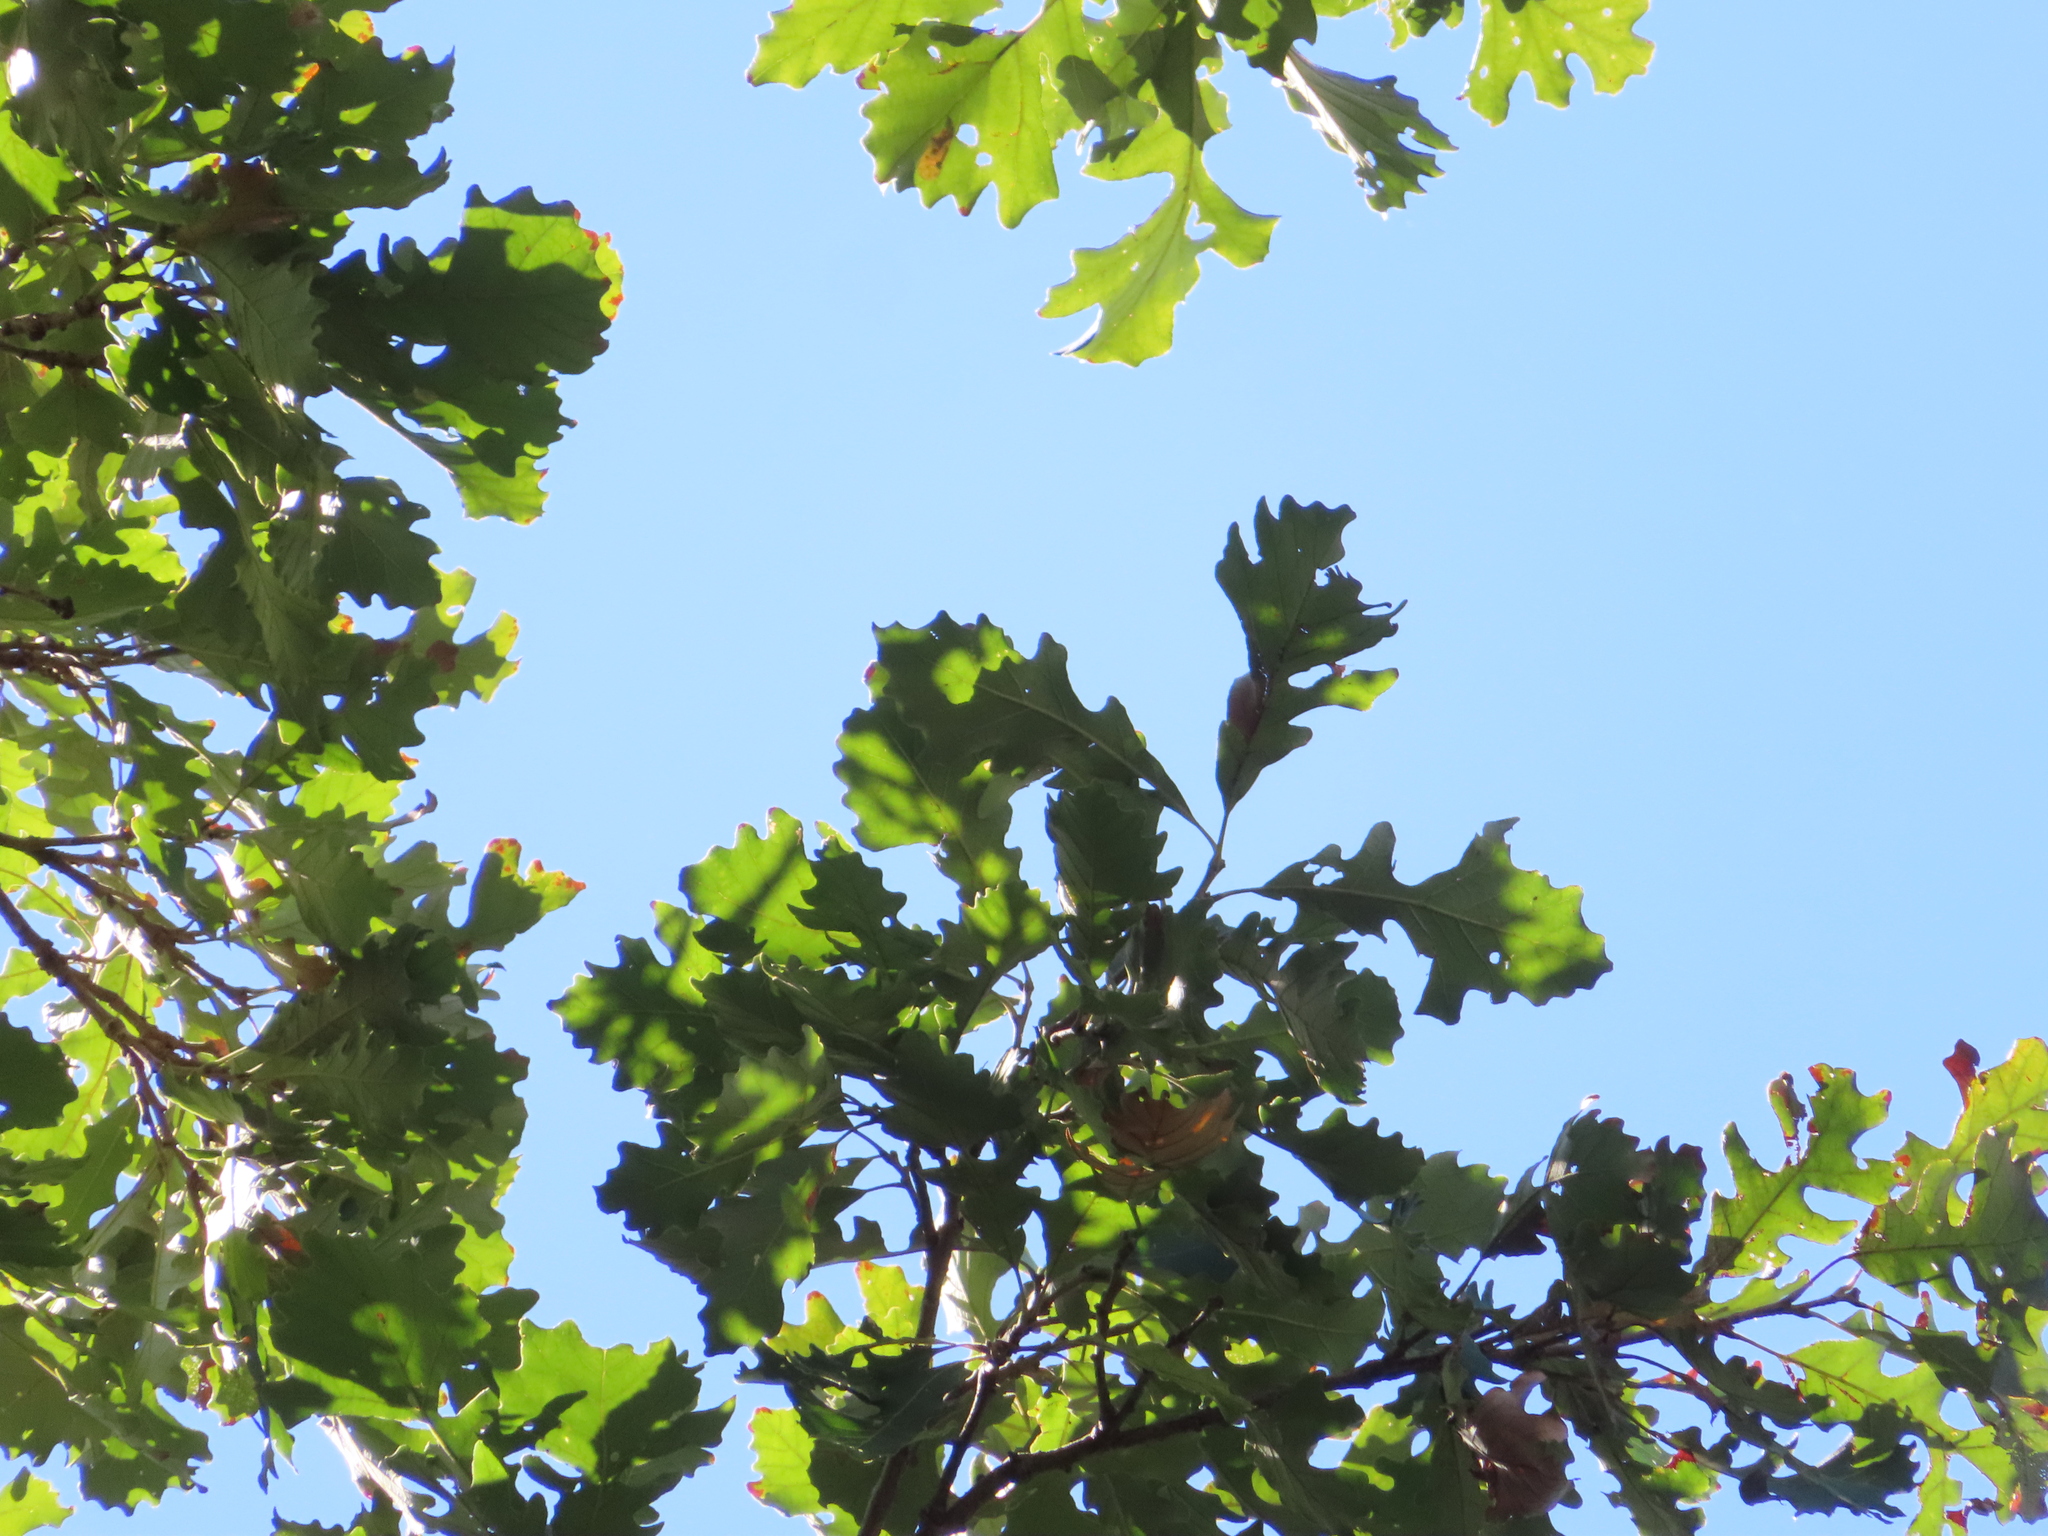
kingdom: Plantae
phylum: Tracheophyta
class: Magnoliopsida
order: Fagales
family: Fagaceae
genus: Quercus
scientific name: Quercus macrocarpa
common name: Bur oak
